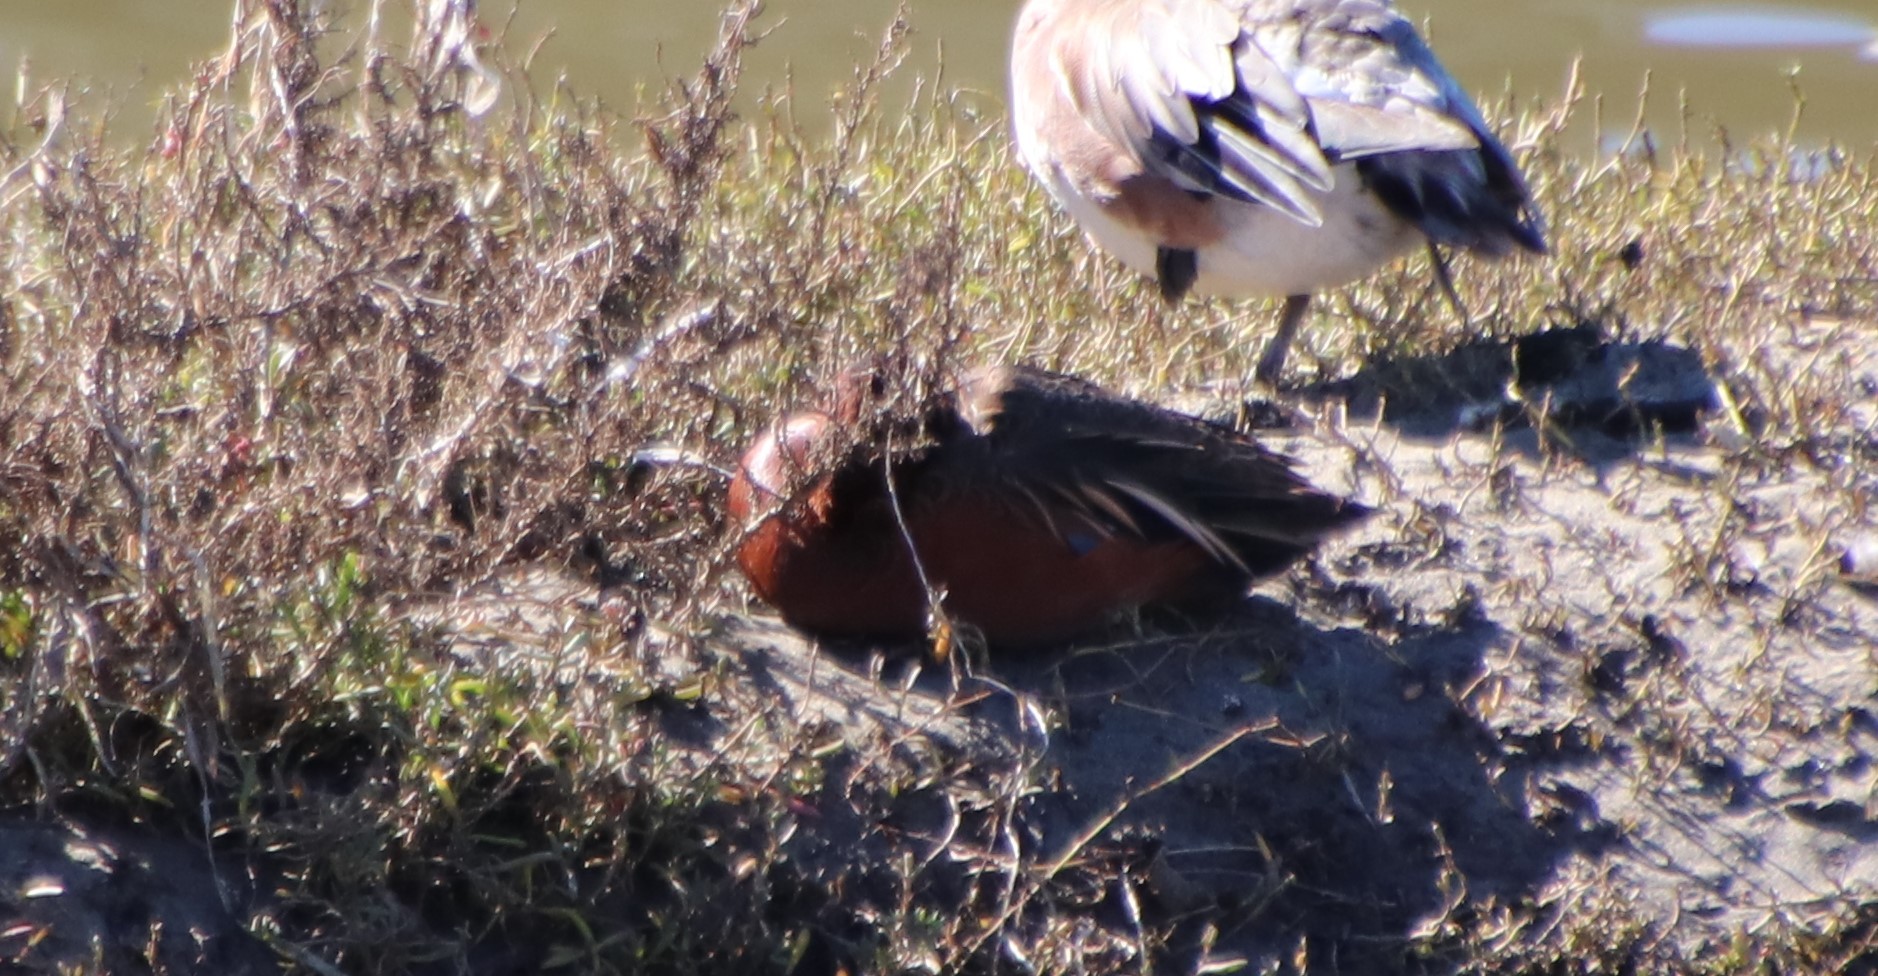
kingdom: Animalia
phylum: Chordata
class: Aves
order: Anseriformes
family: Anatidae
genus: Spatula
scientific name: Spatula cyanoptera
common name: Cinnamon teal
